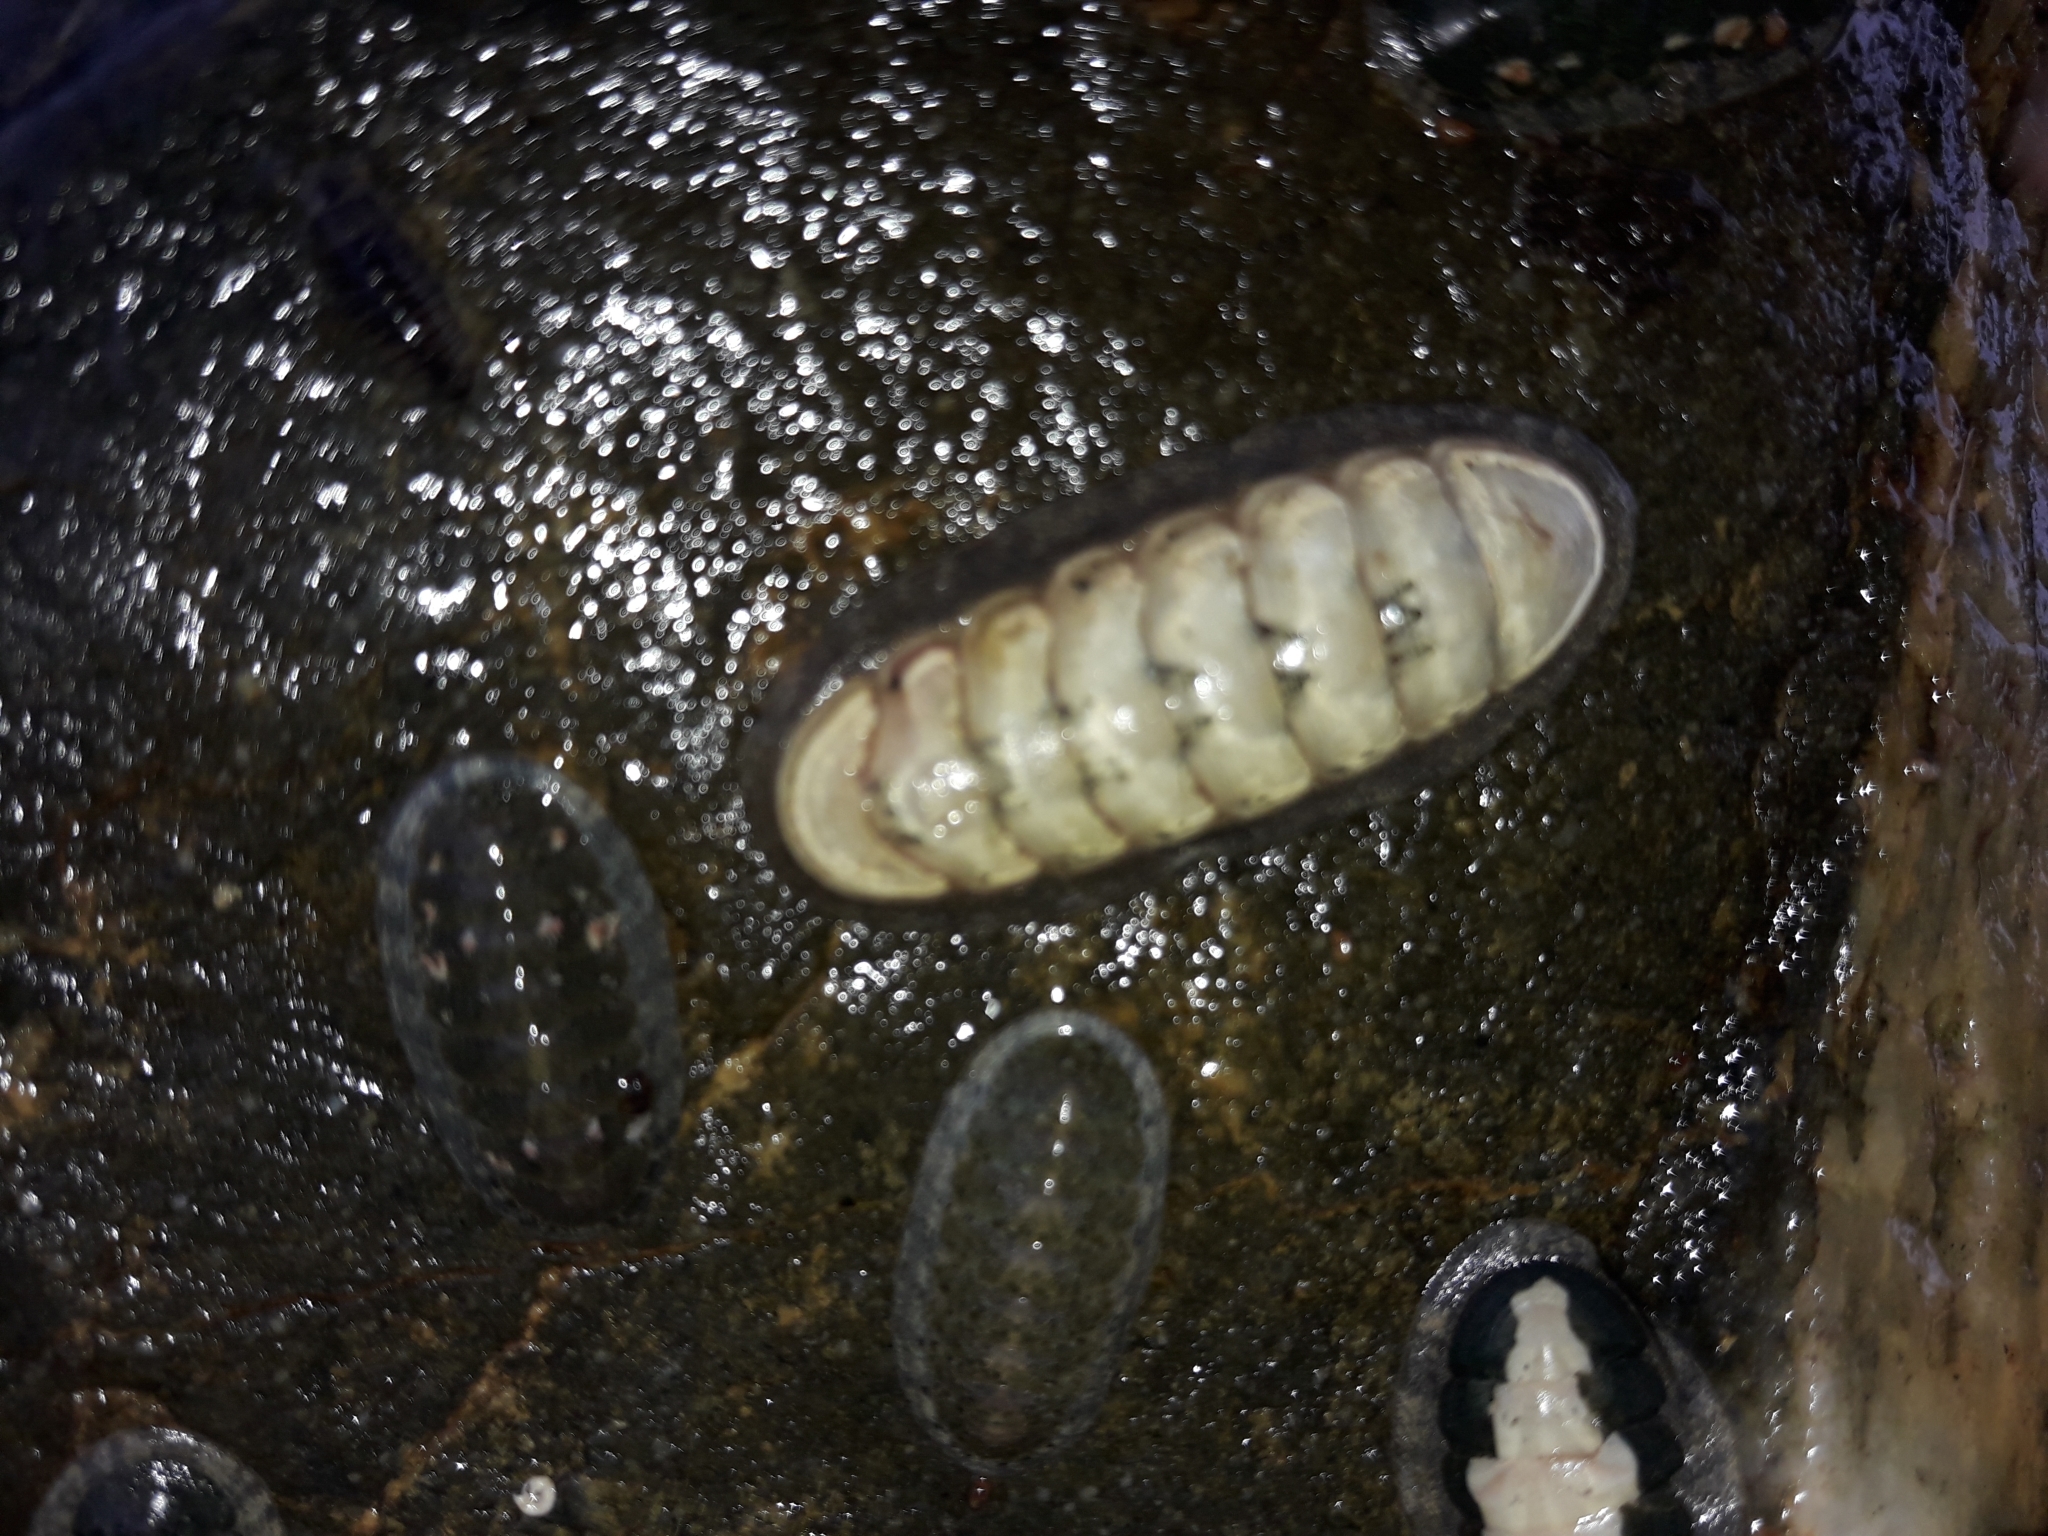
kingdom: Animalia
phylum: Mollusca
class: Polyplacophora
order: Chitonida
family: Ischnochitonidae
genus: Ischnochiton
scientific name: Ischnochiton maorianus
